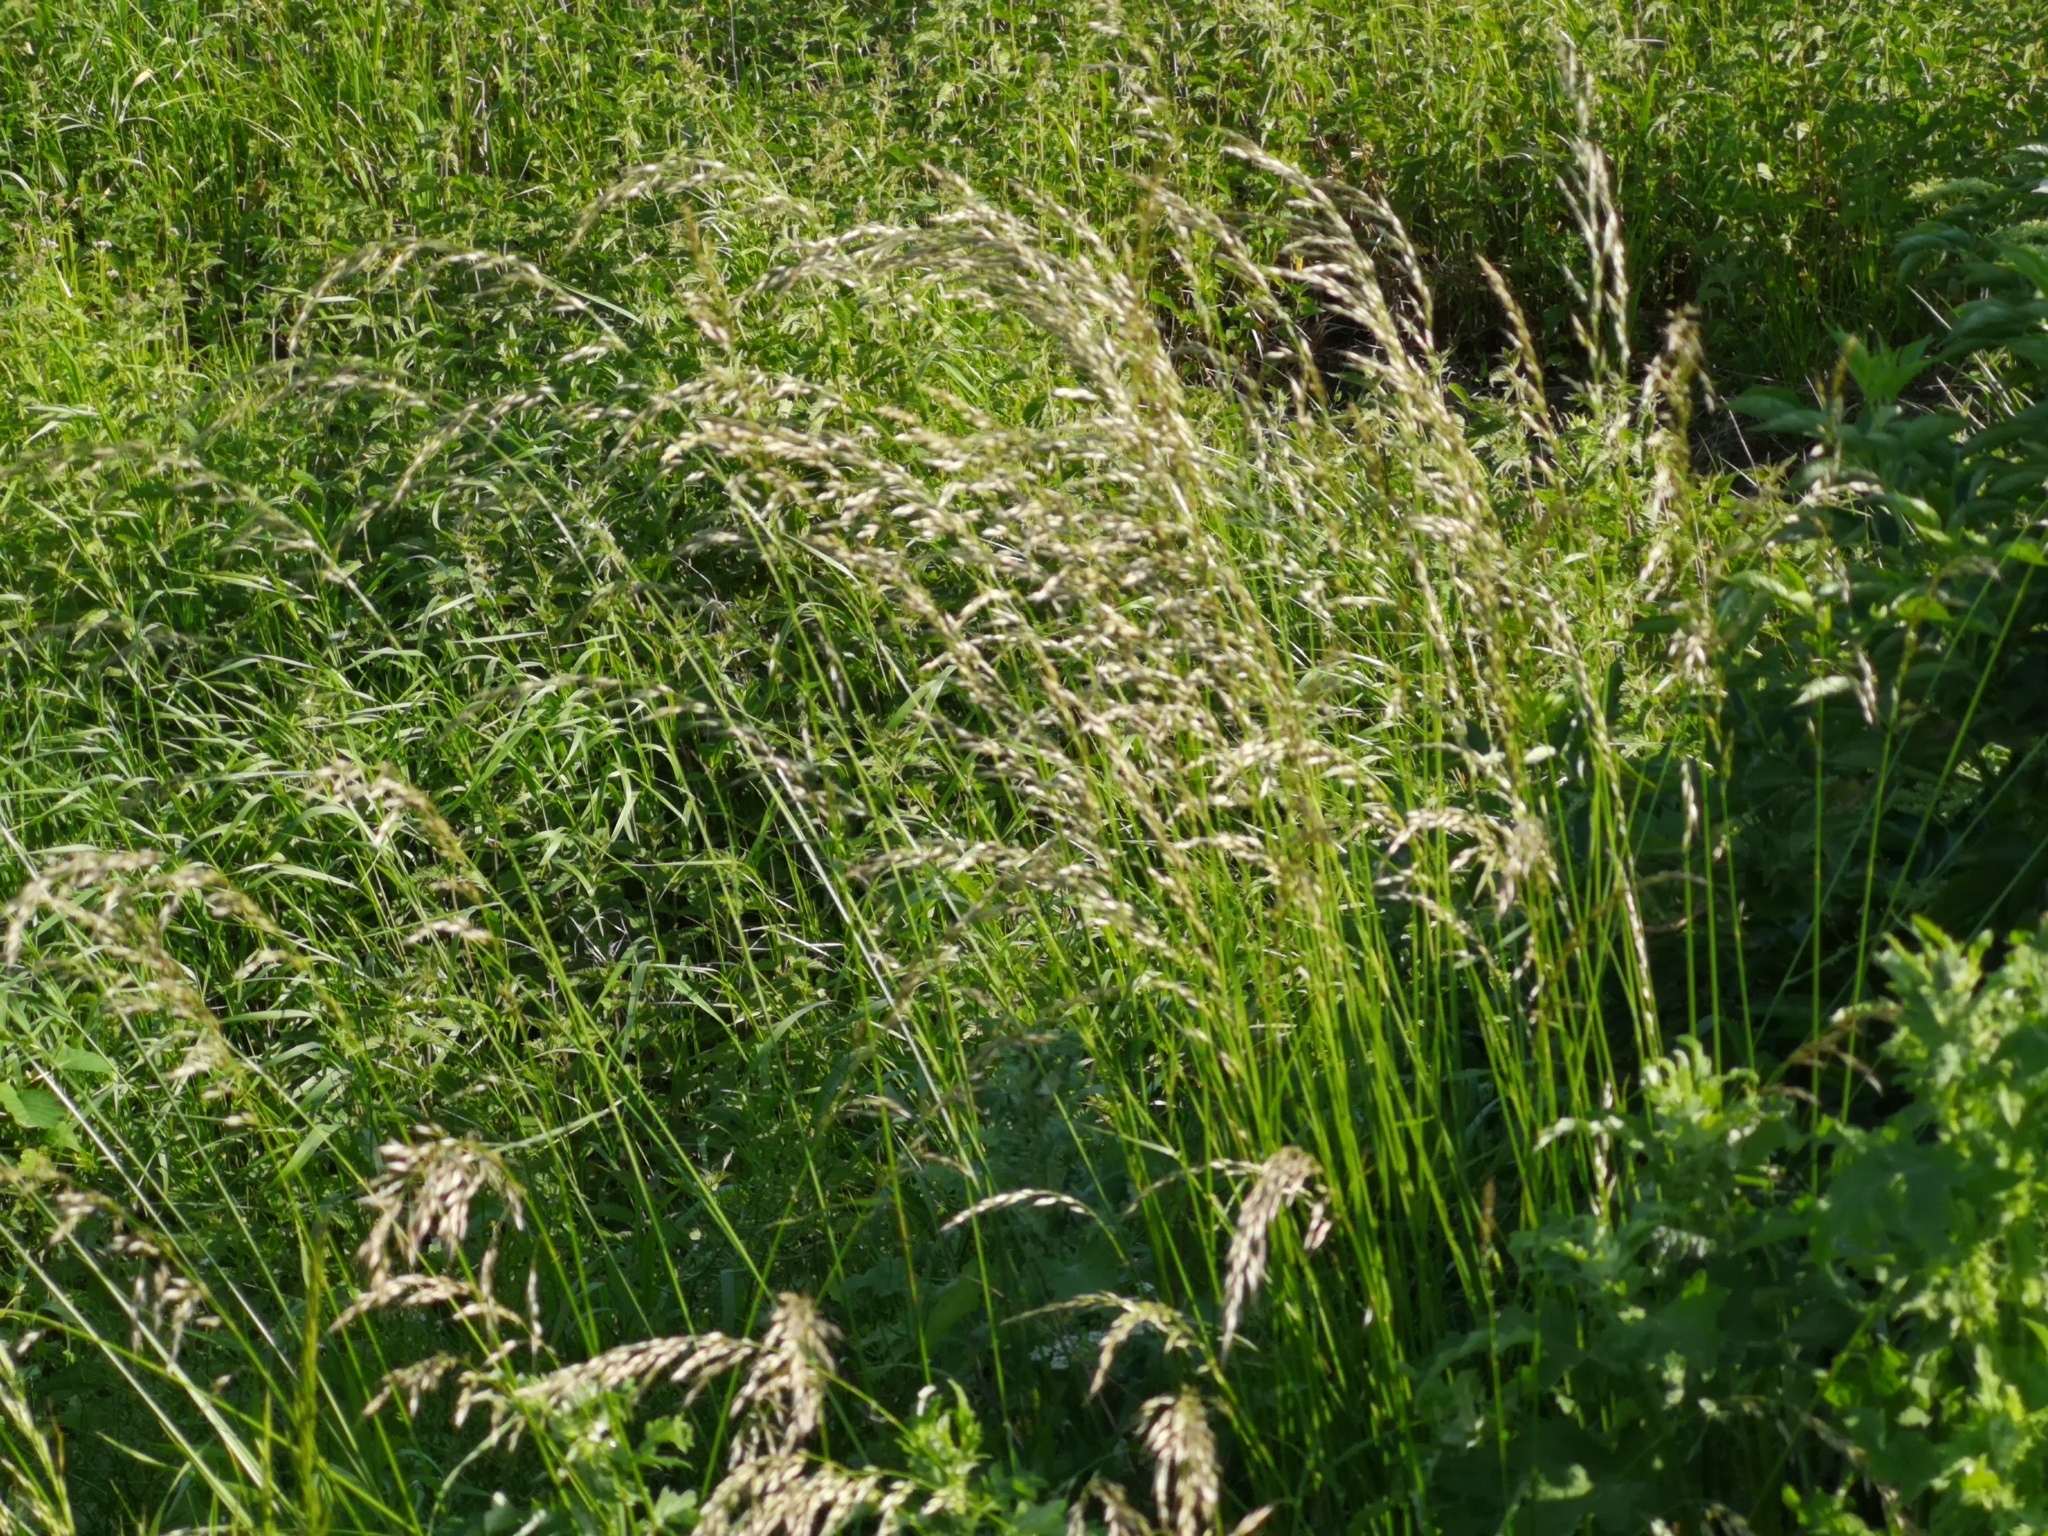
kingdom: Plantae
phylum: Tracheophyta
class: Liliopsida
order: Poales
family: Poaceae
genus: Arrhenatherum
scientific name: Arrhenatherum elatius
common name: Tall oatgrass
